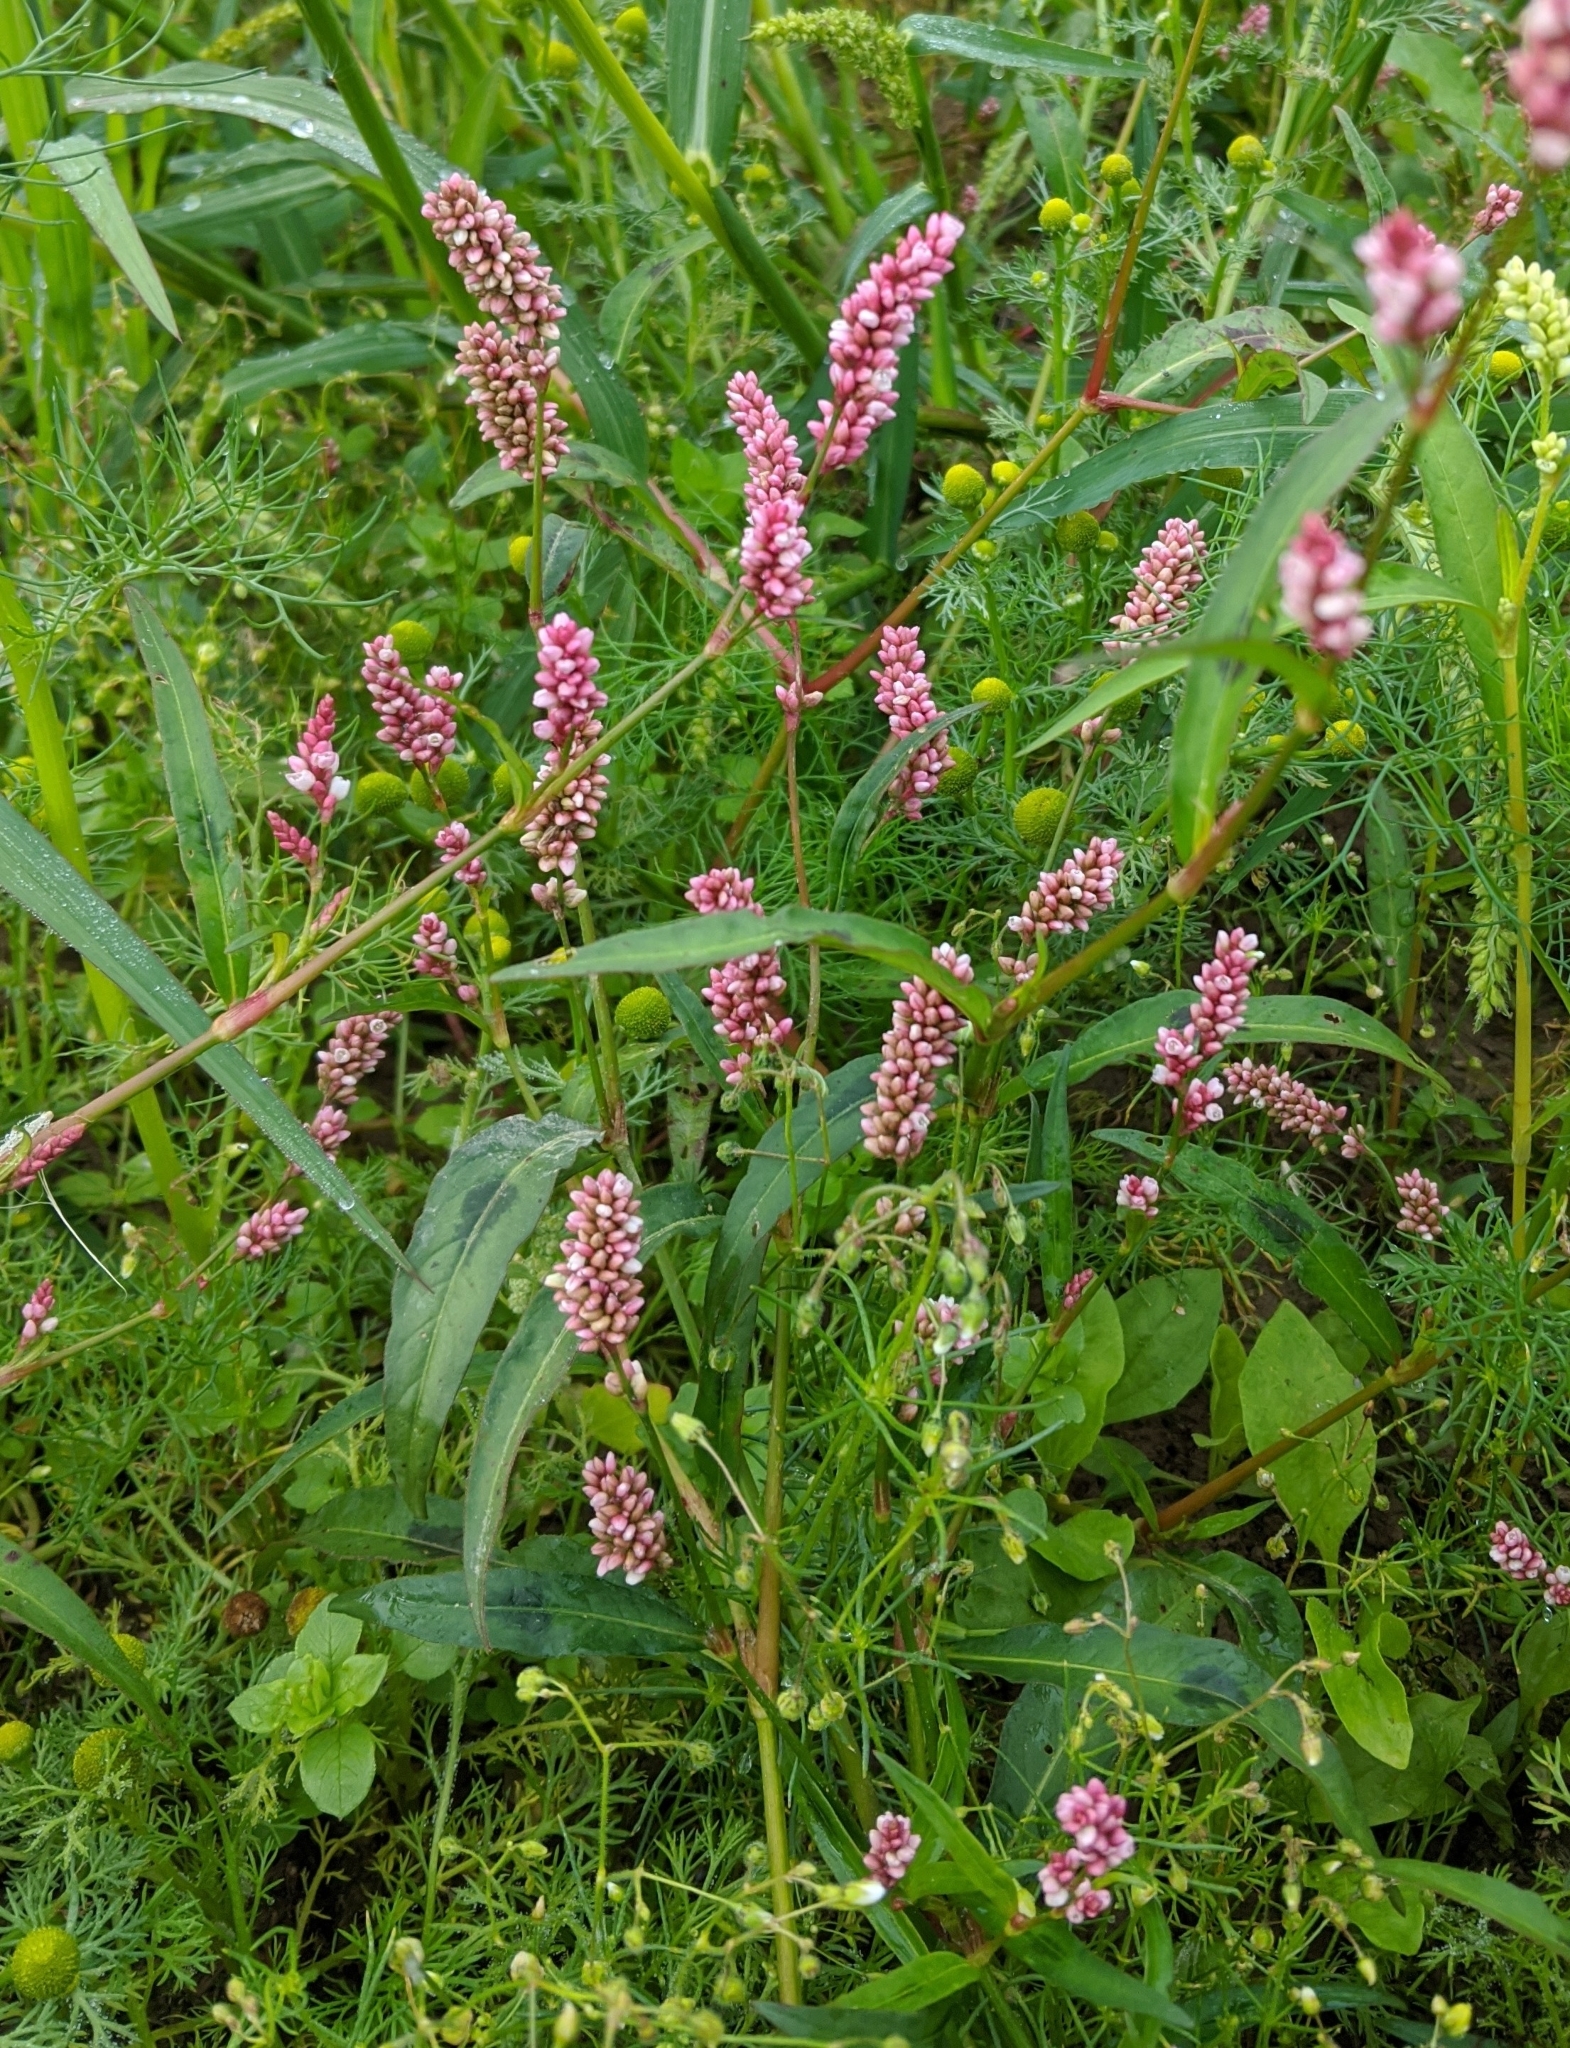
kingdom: Plantae
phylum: Tracheophyta
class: Magnoliopsida
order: Caryophyllales
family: Polygonaceae
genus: Persicaria
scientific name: Persicaria maculosa
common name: Redshank
